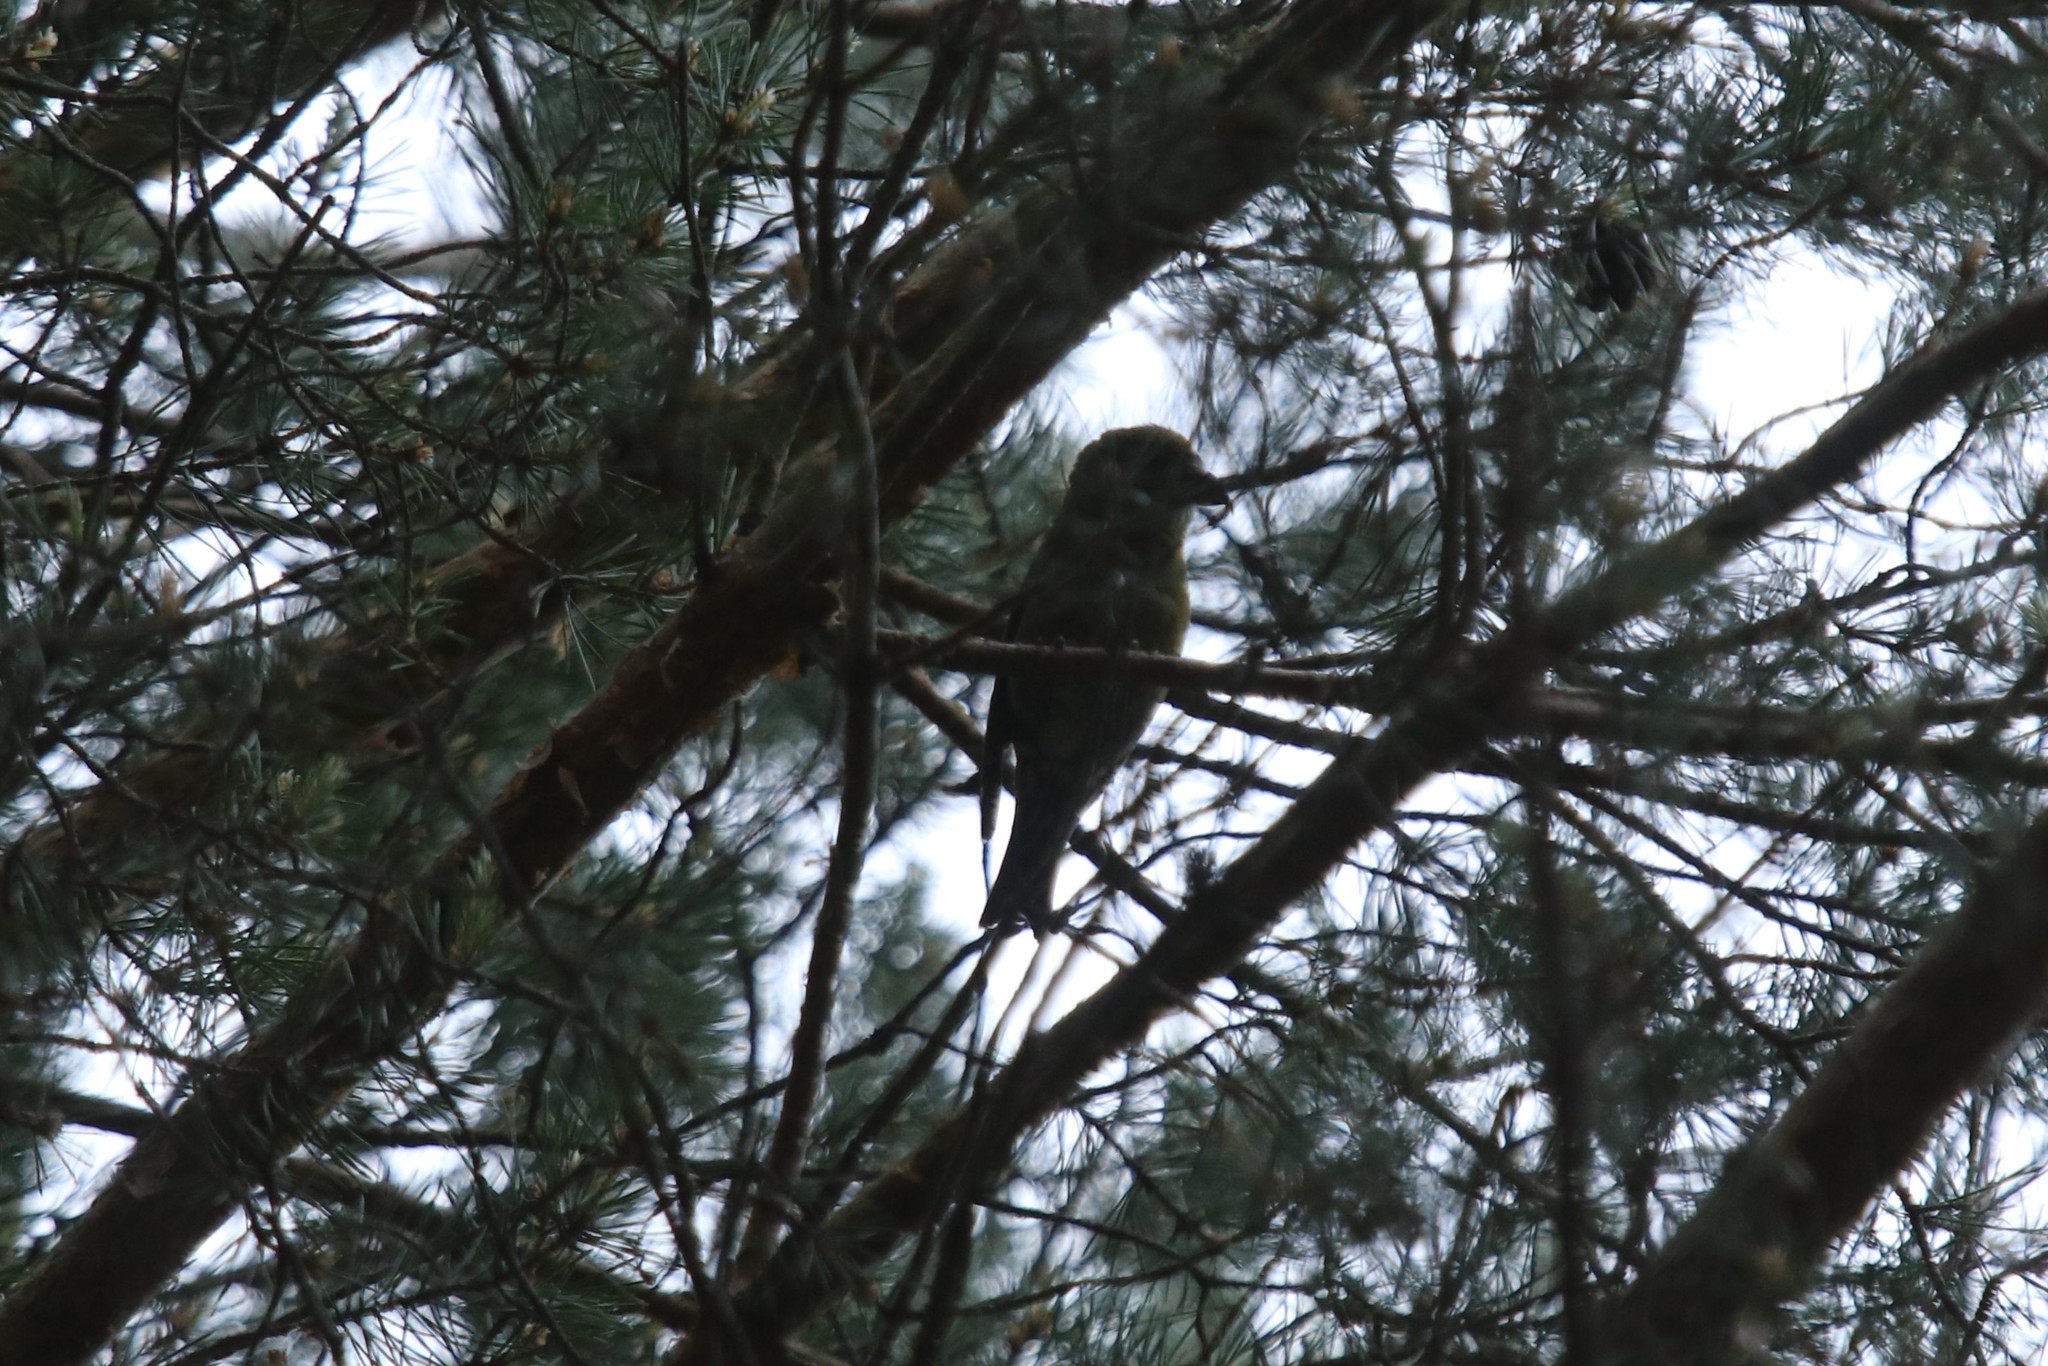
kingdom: Animalia
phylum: Chordata
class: Aves
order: Passeriformes
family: Fringillidae
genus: Loxia
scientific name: Loxia curvirostra
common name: Red crossbill
